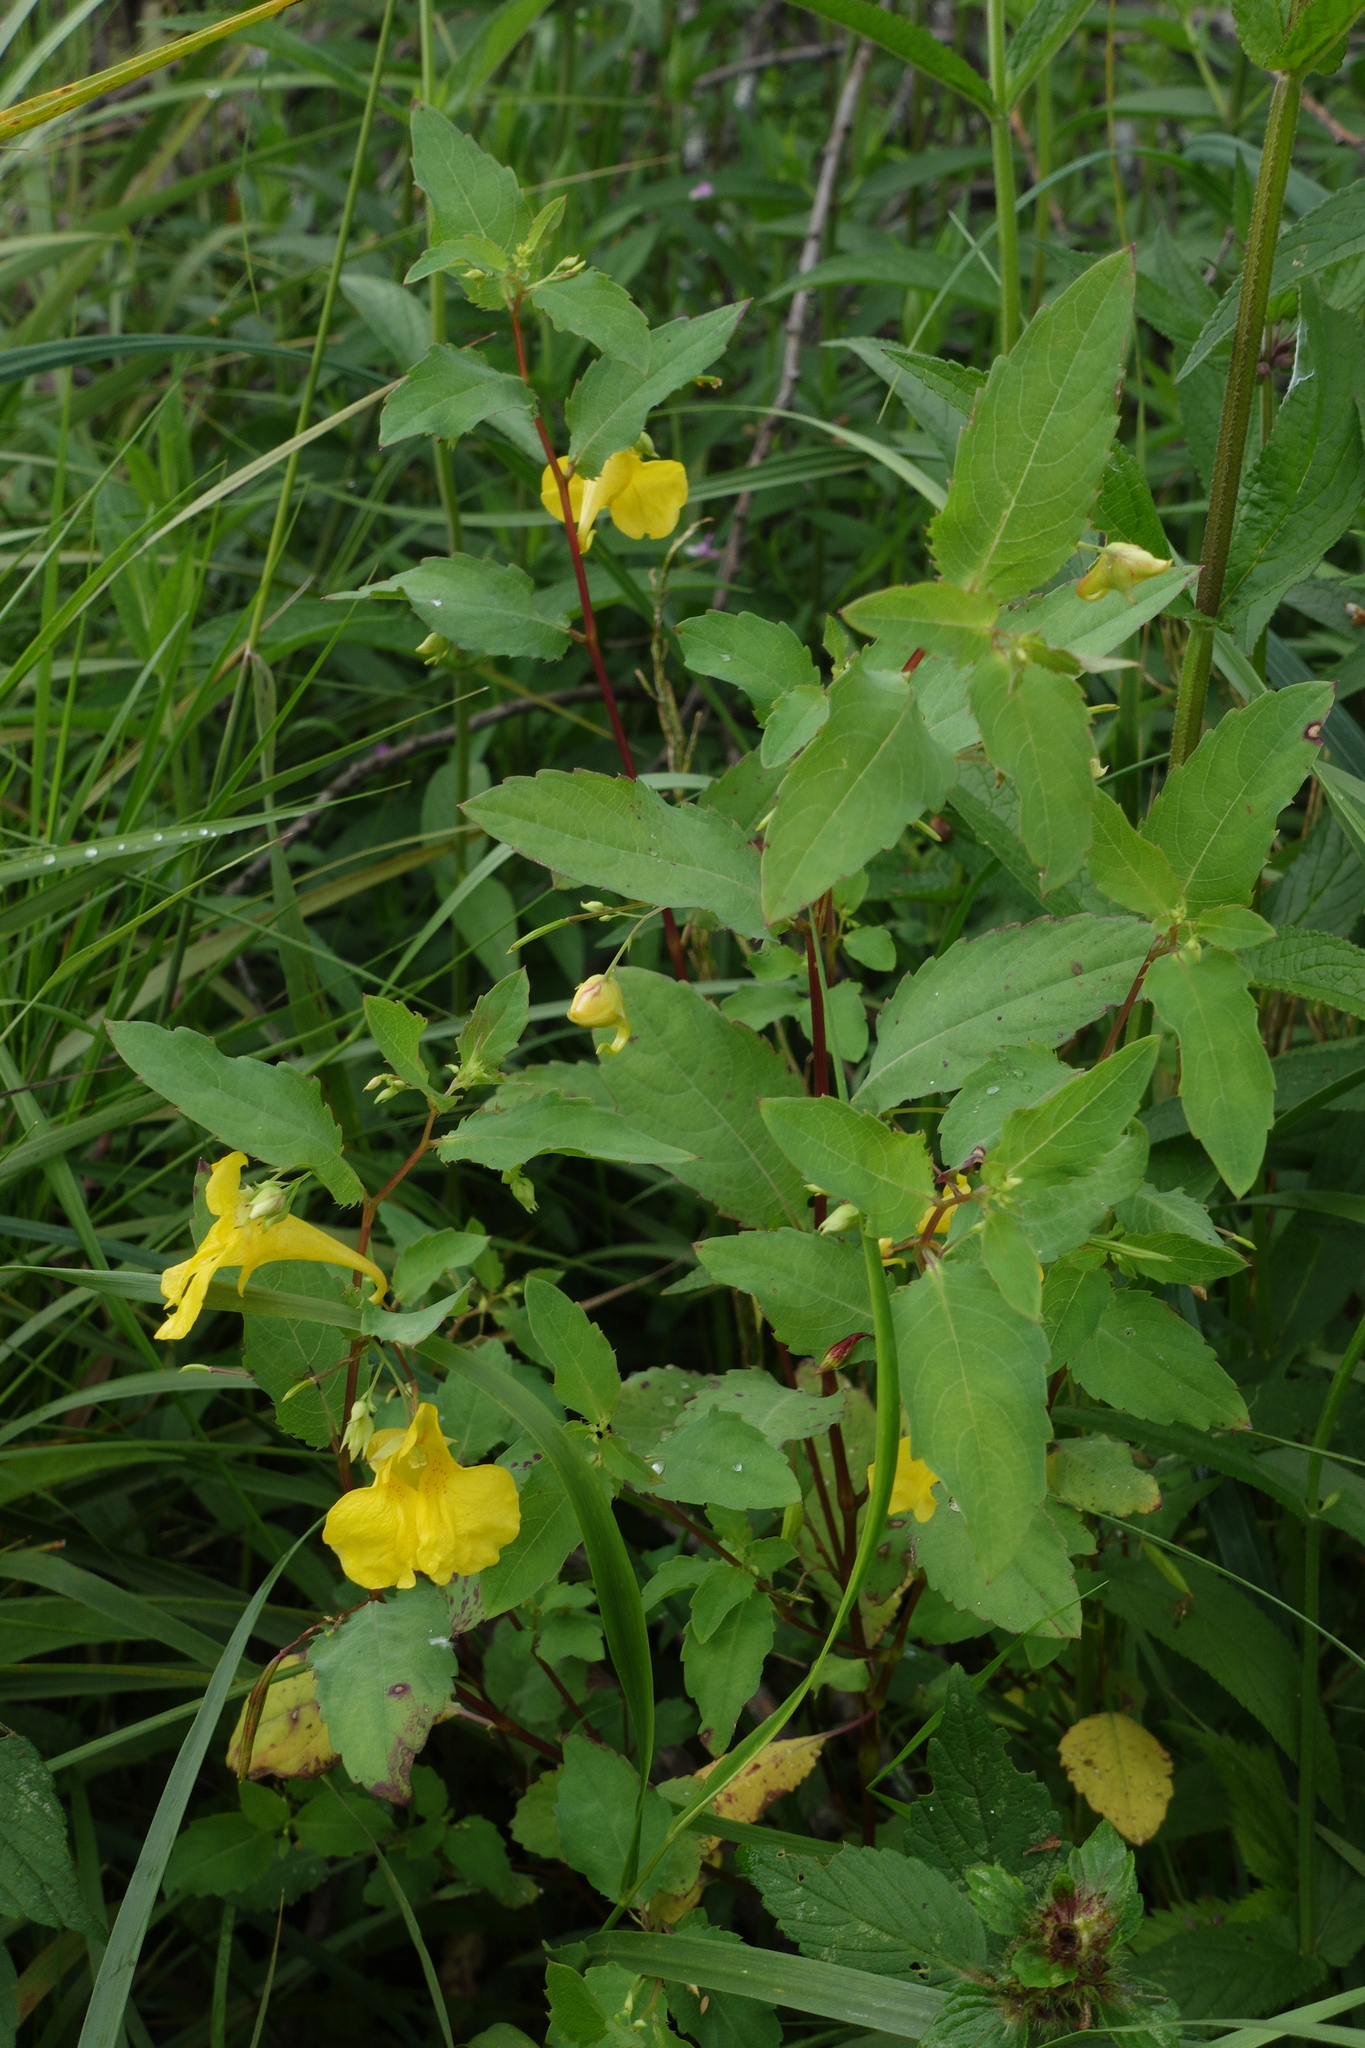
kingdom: Plantae
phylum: Tracheophyta
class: Magnoliopsida
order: Ericales
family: Balsaminaceae
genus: Impatiens
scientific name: Impatiens noli-tangere
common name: Touch-me-not balsam
